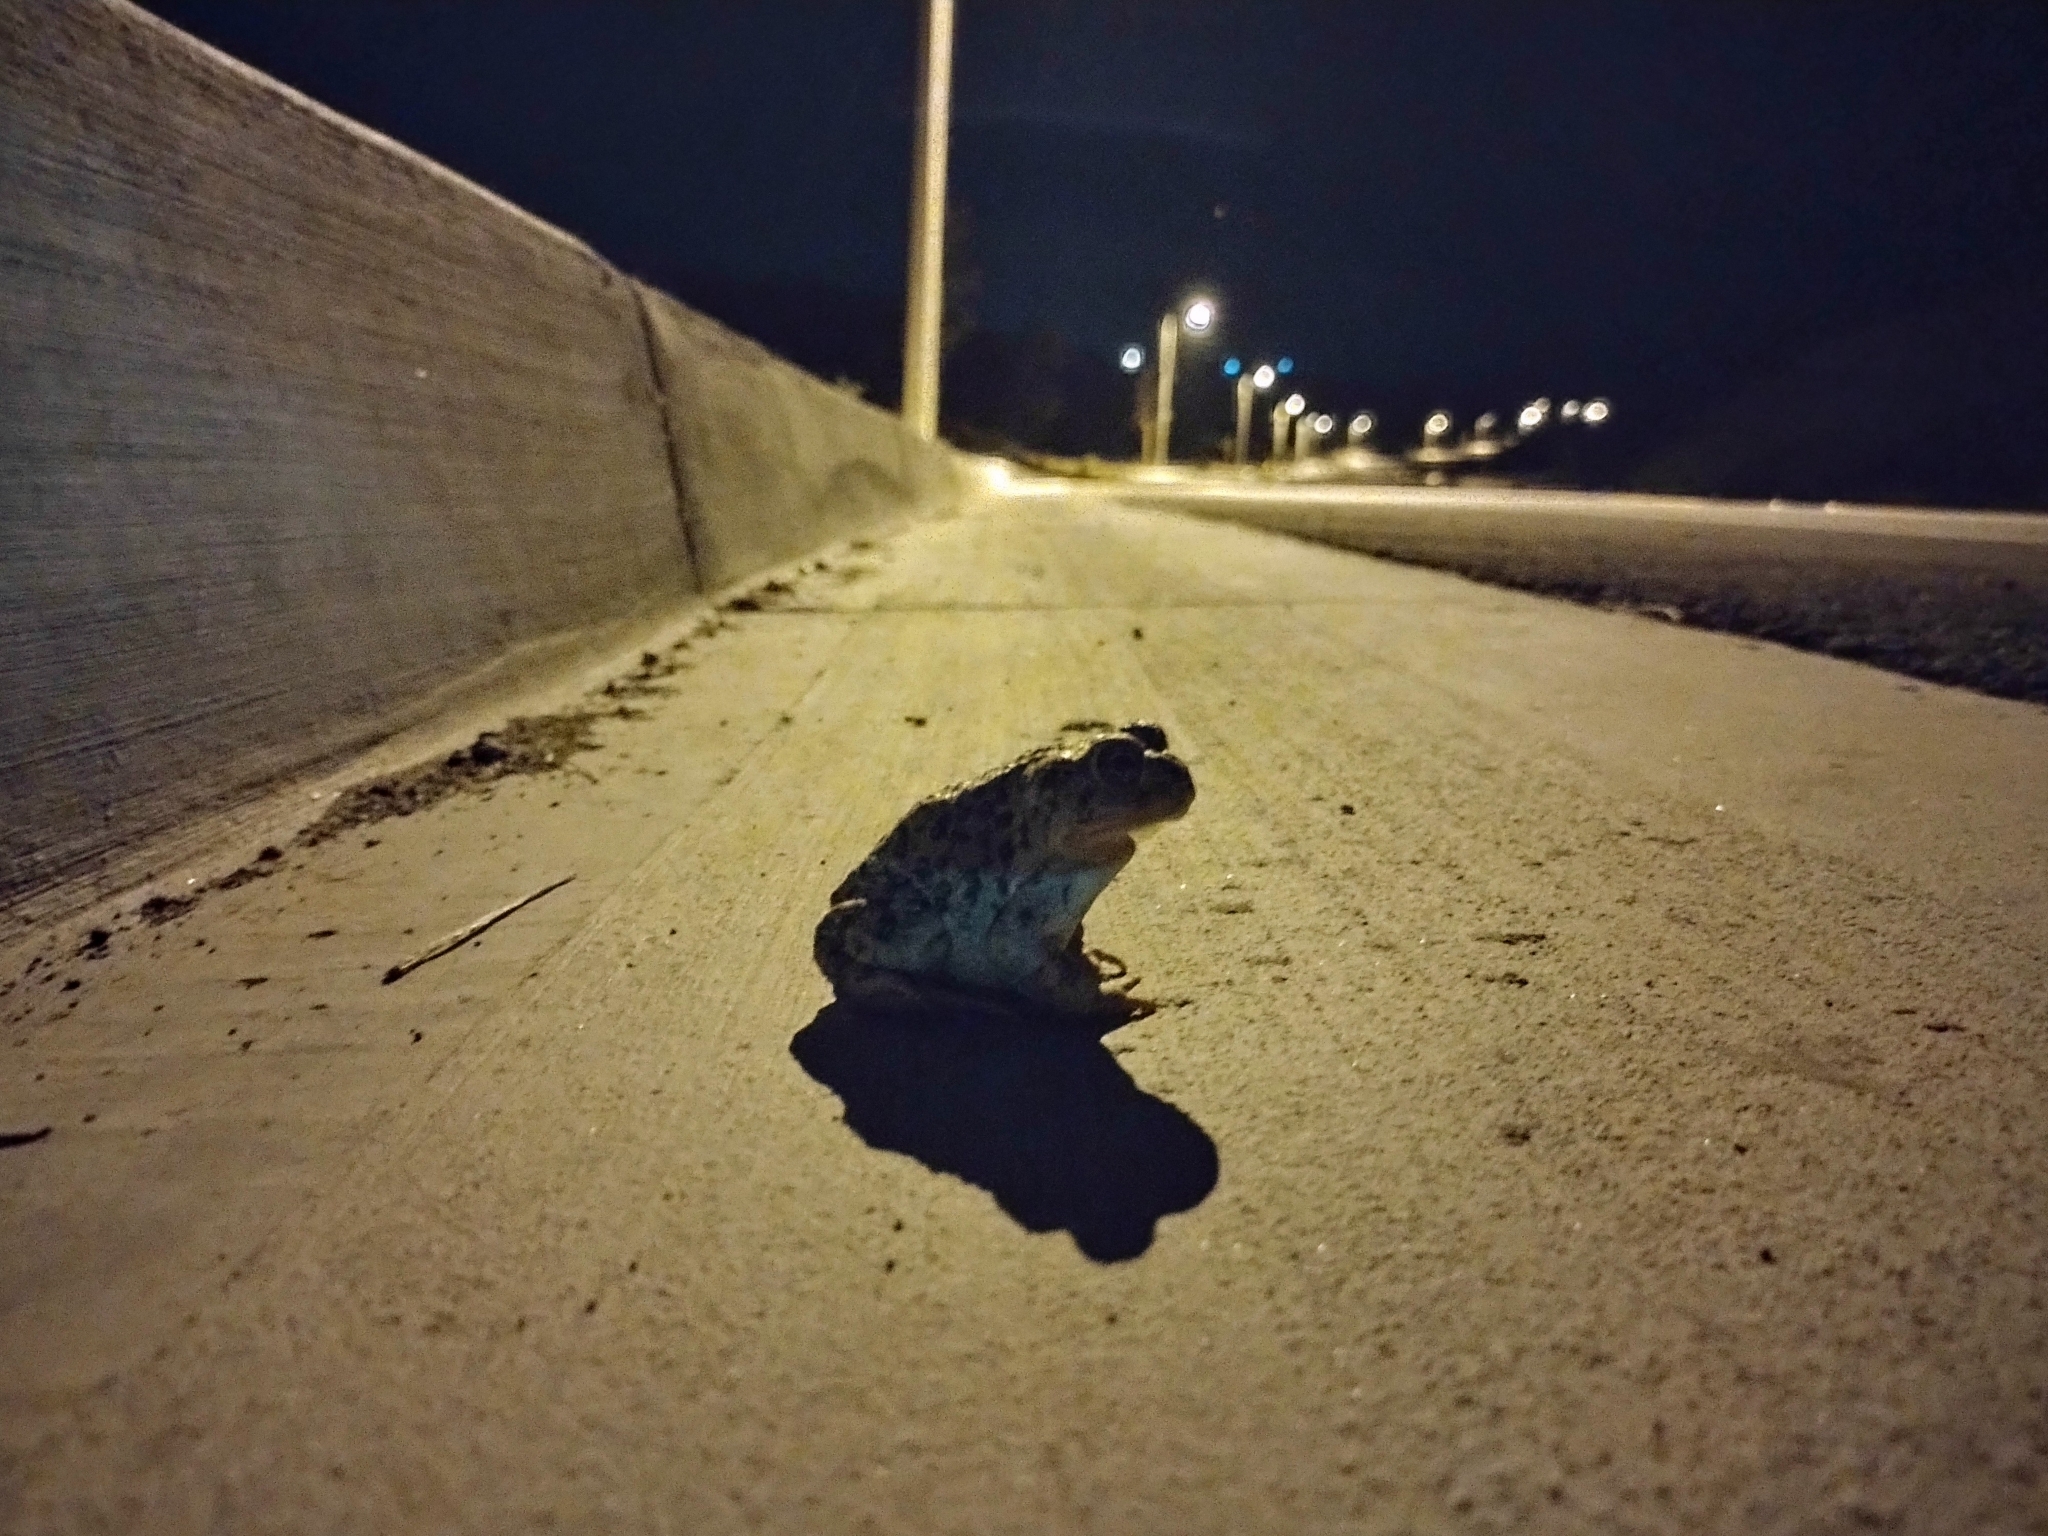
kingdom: Animalia
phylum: Chordata
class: Amphibia
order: Anura
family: Bufonidae
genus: Anaxyrus
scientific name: Anaxyrus boreas
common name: Western toad
